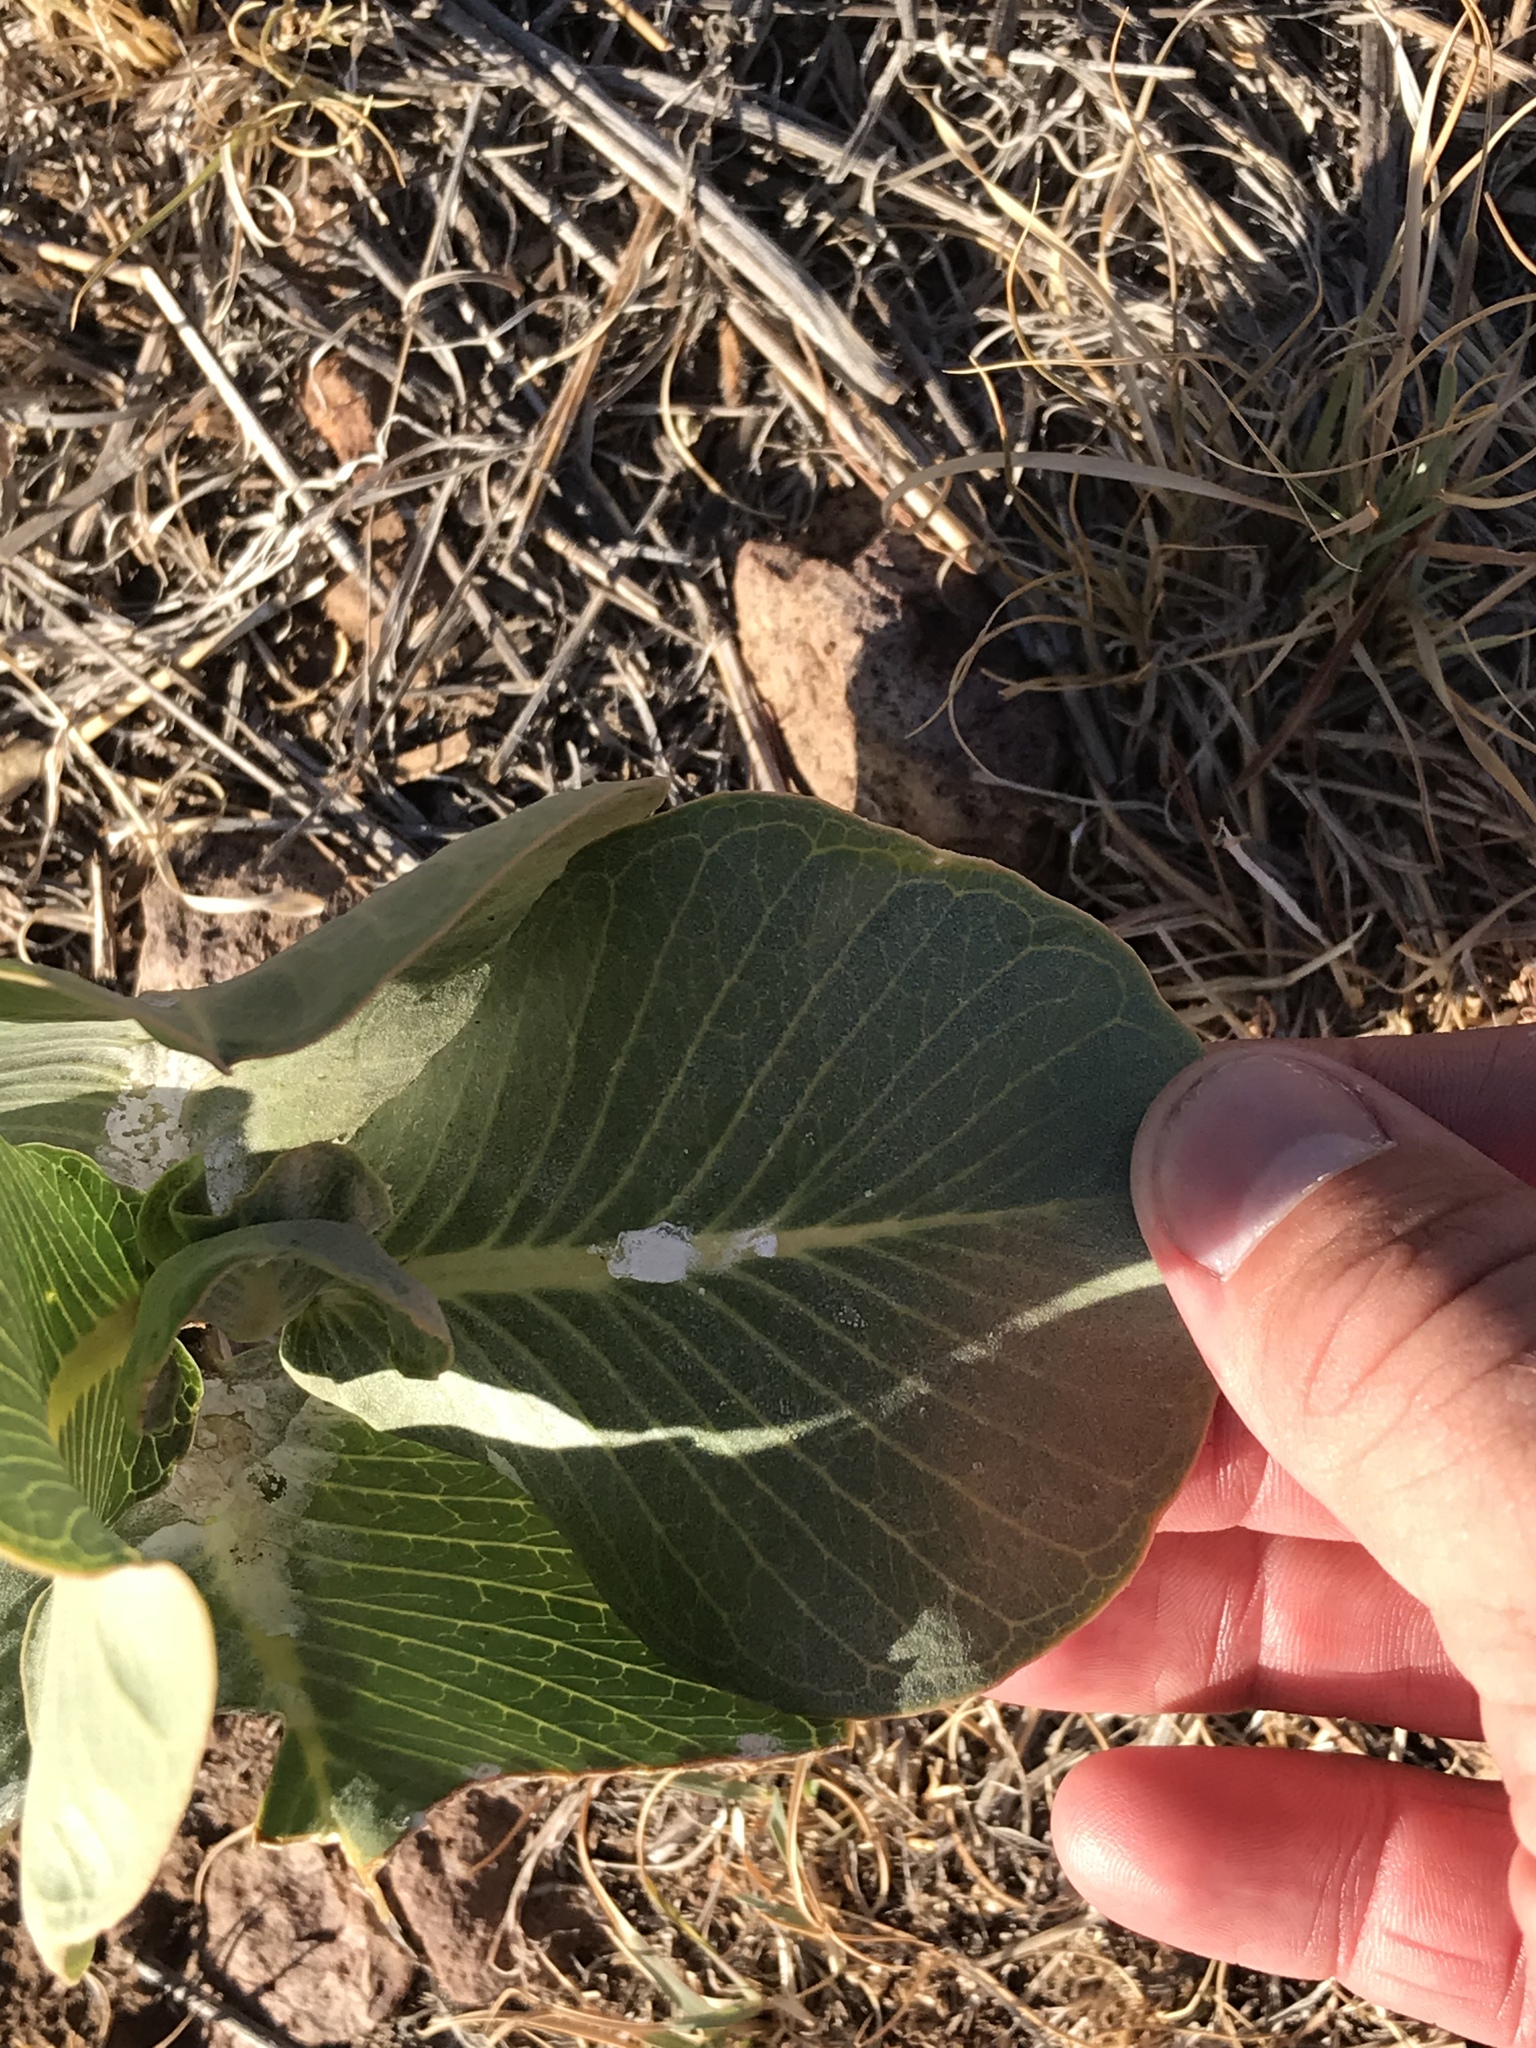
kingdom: Plantae
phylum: Tracheophyta
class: Magnoliopsida
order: Gentianales
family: Apocynaceae
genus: Asclepias
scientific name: Asclepias latifolia
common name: Broadleaf milkweed
